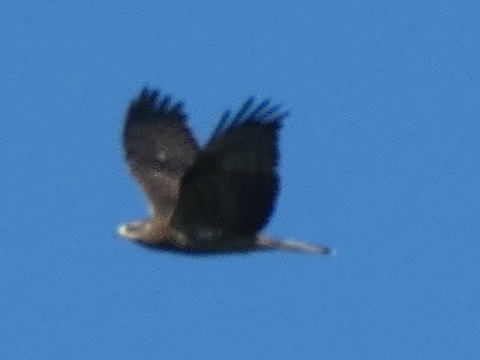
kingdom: Animalia
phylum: Chordata
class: Aves
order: Accipitriformes
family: Accipitridae
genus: Pernis
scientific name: Pernis apivorus
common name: European honey buzzard
